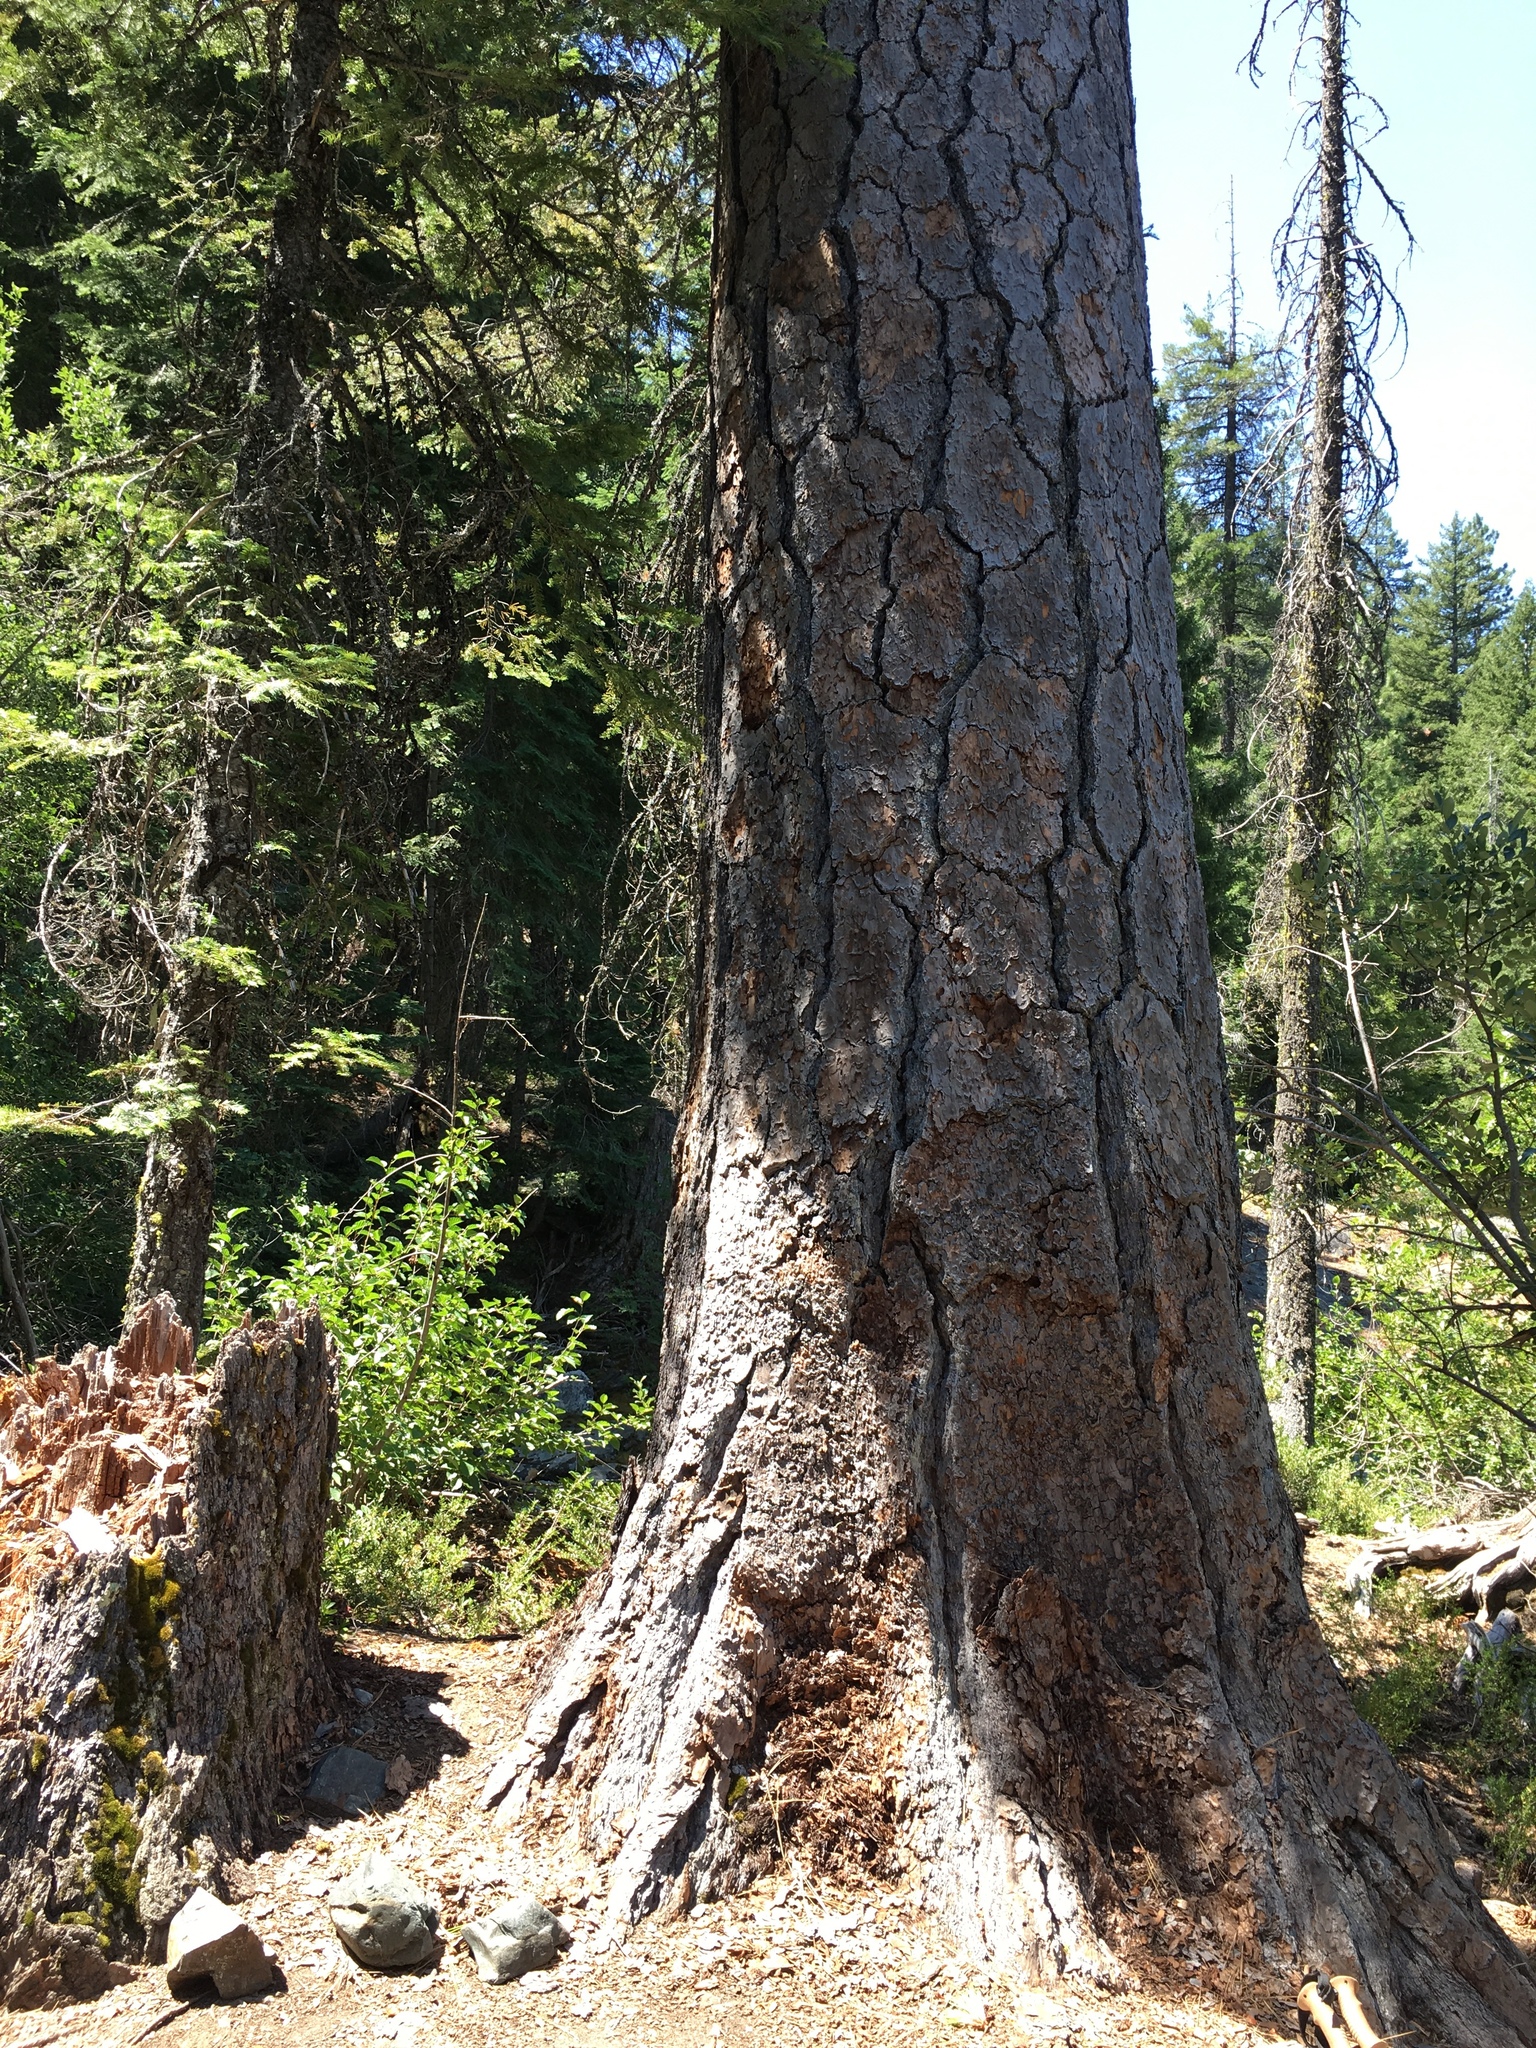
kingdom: Plantae
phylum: Tracheophyta
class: Pinopsida
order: Pinales
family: Pinaceae
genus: Pinus
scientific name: Pinus ponderosa
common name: Western yellow-pine
